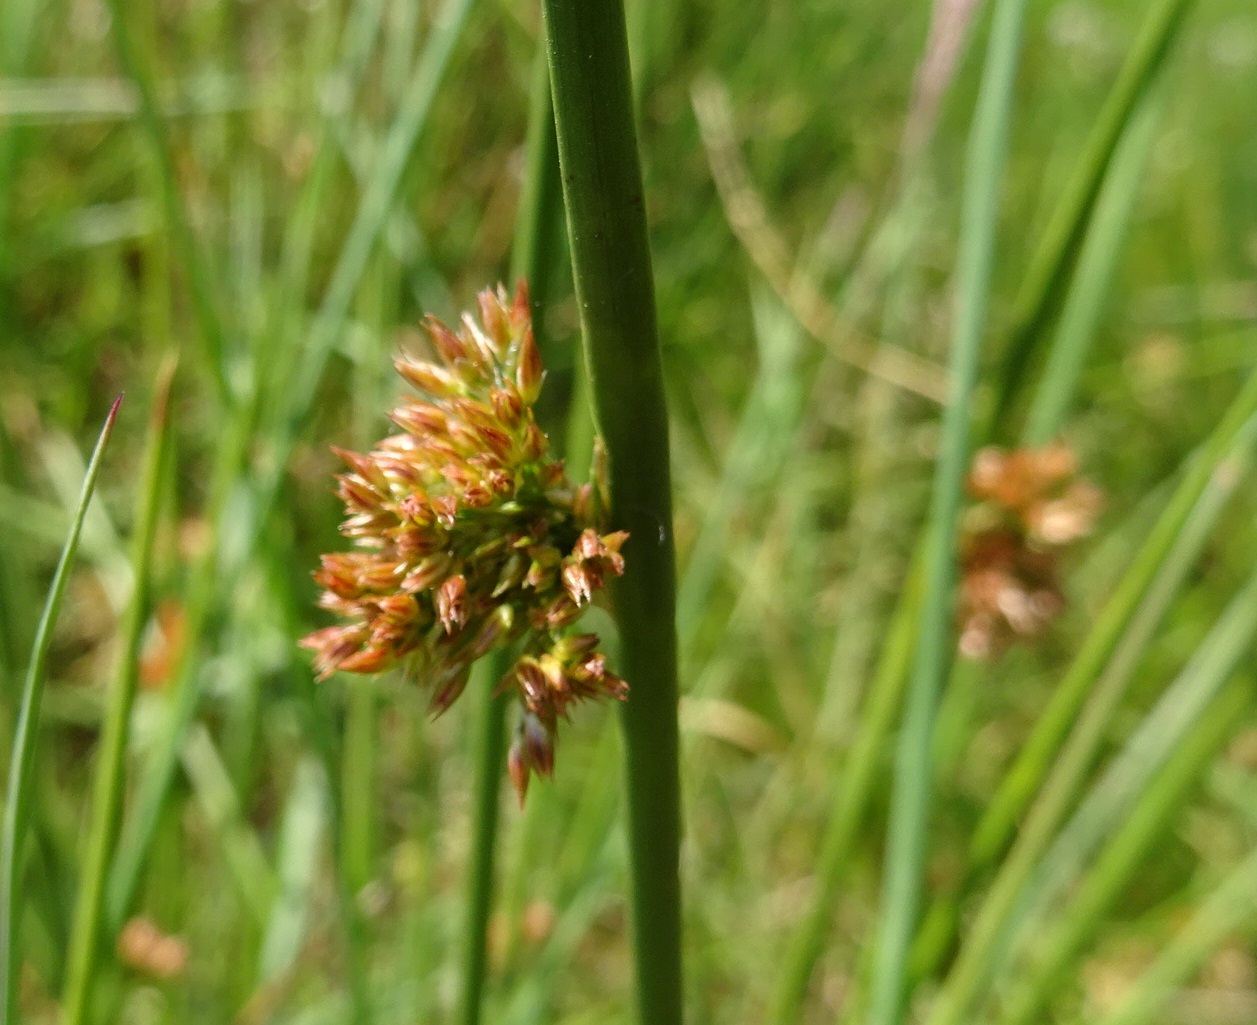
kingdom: Plantae
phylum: Tracheophyta
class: Liliopsida
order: Poales
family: Juncaceae
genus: Juncus
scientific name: Juncus effusus
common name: Soft rush
